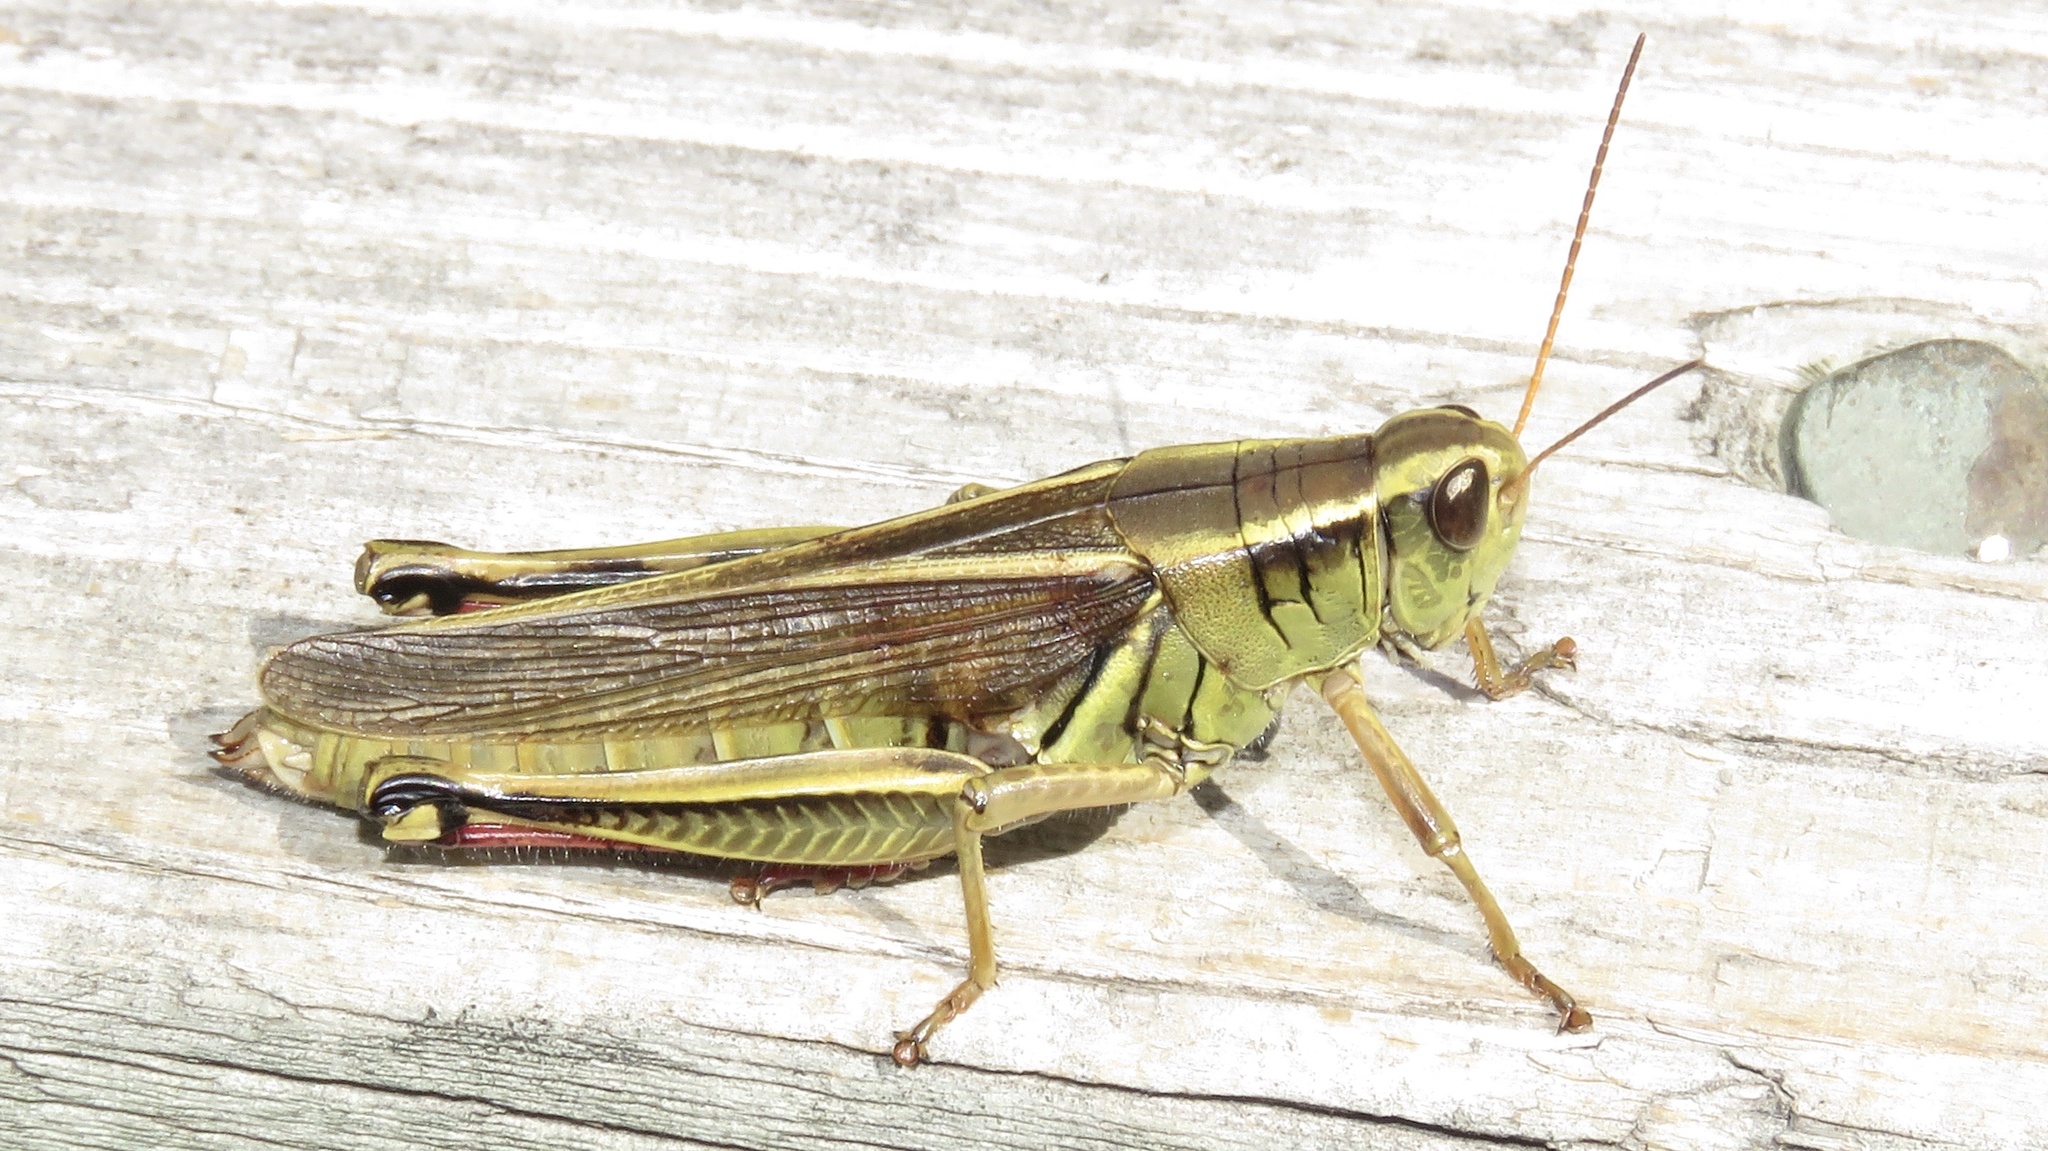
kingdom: Animalia
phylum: Arthropoda
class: Insecta
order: Orthoptera
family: Acrididae
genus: Melanoplus
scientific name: Melanoplus bivittatus
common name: Two-striped grasshopper
